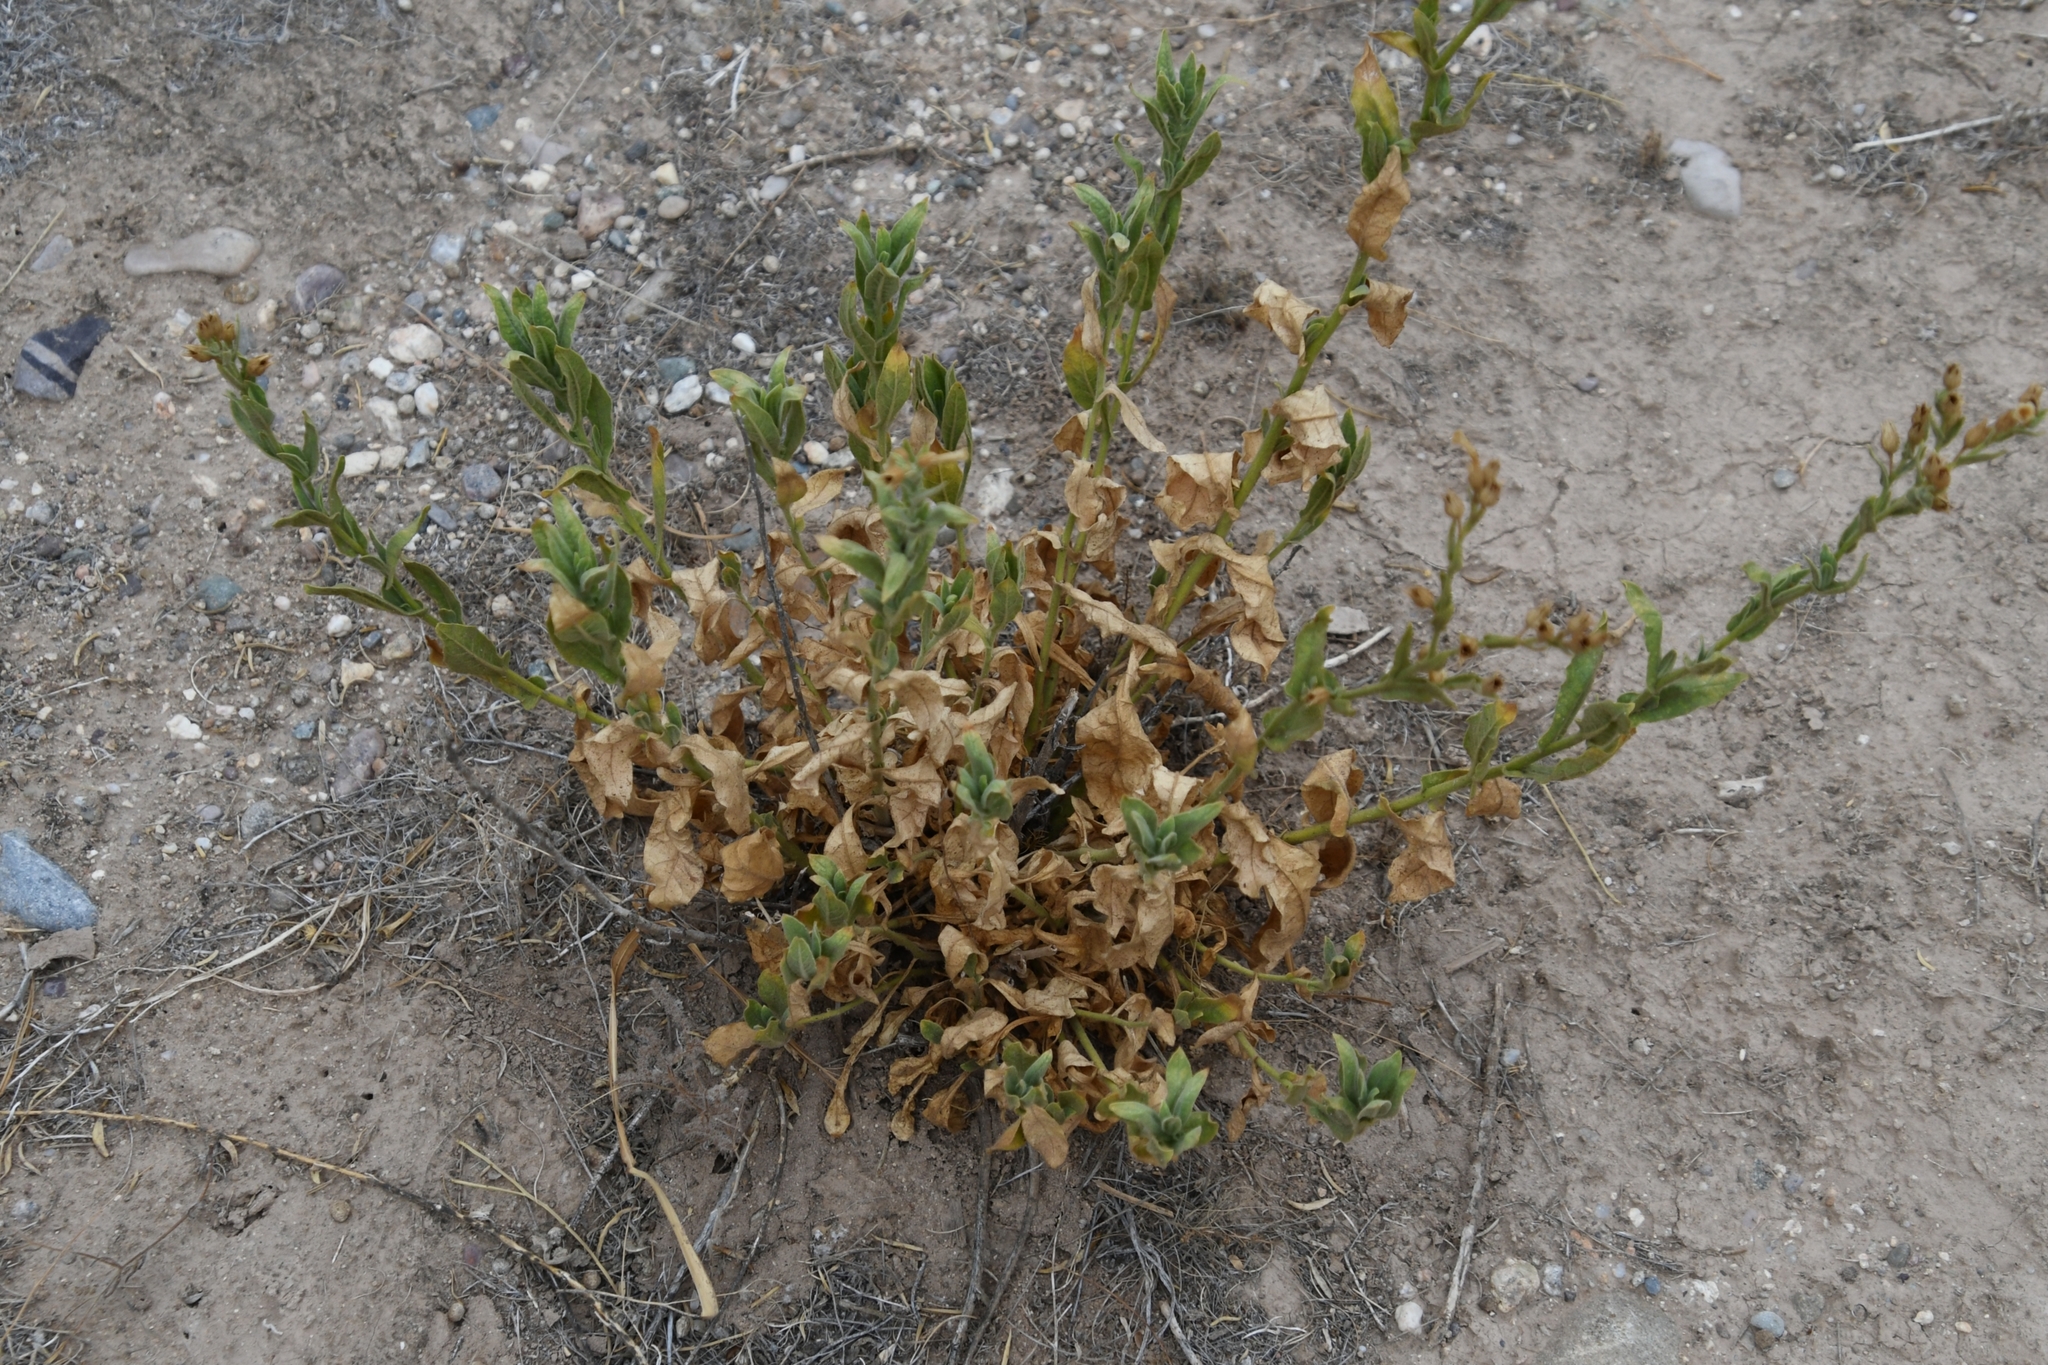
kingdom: Plantae
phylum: Tracheophyta
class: Magnoliopsida
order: Solanales
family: Solanaceae
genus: Nicotiana
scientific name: Nicotiana obtusifolia
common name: Desert tobacco
